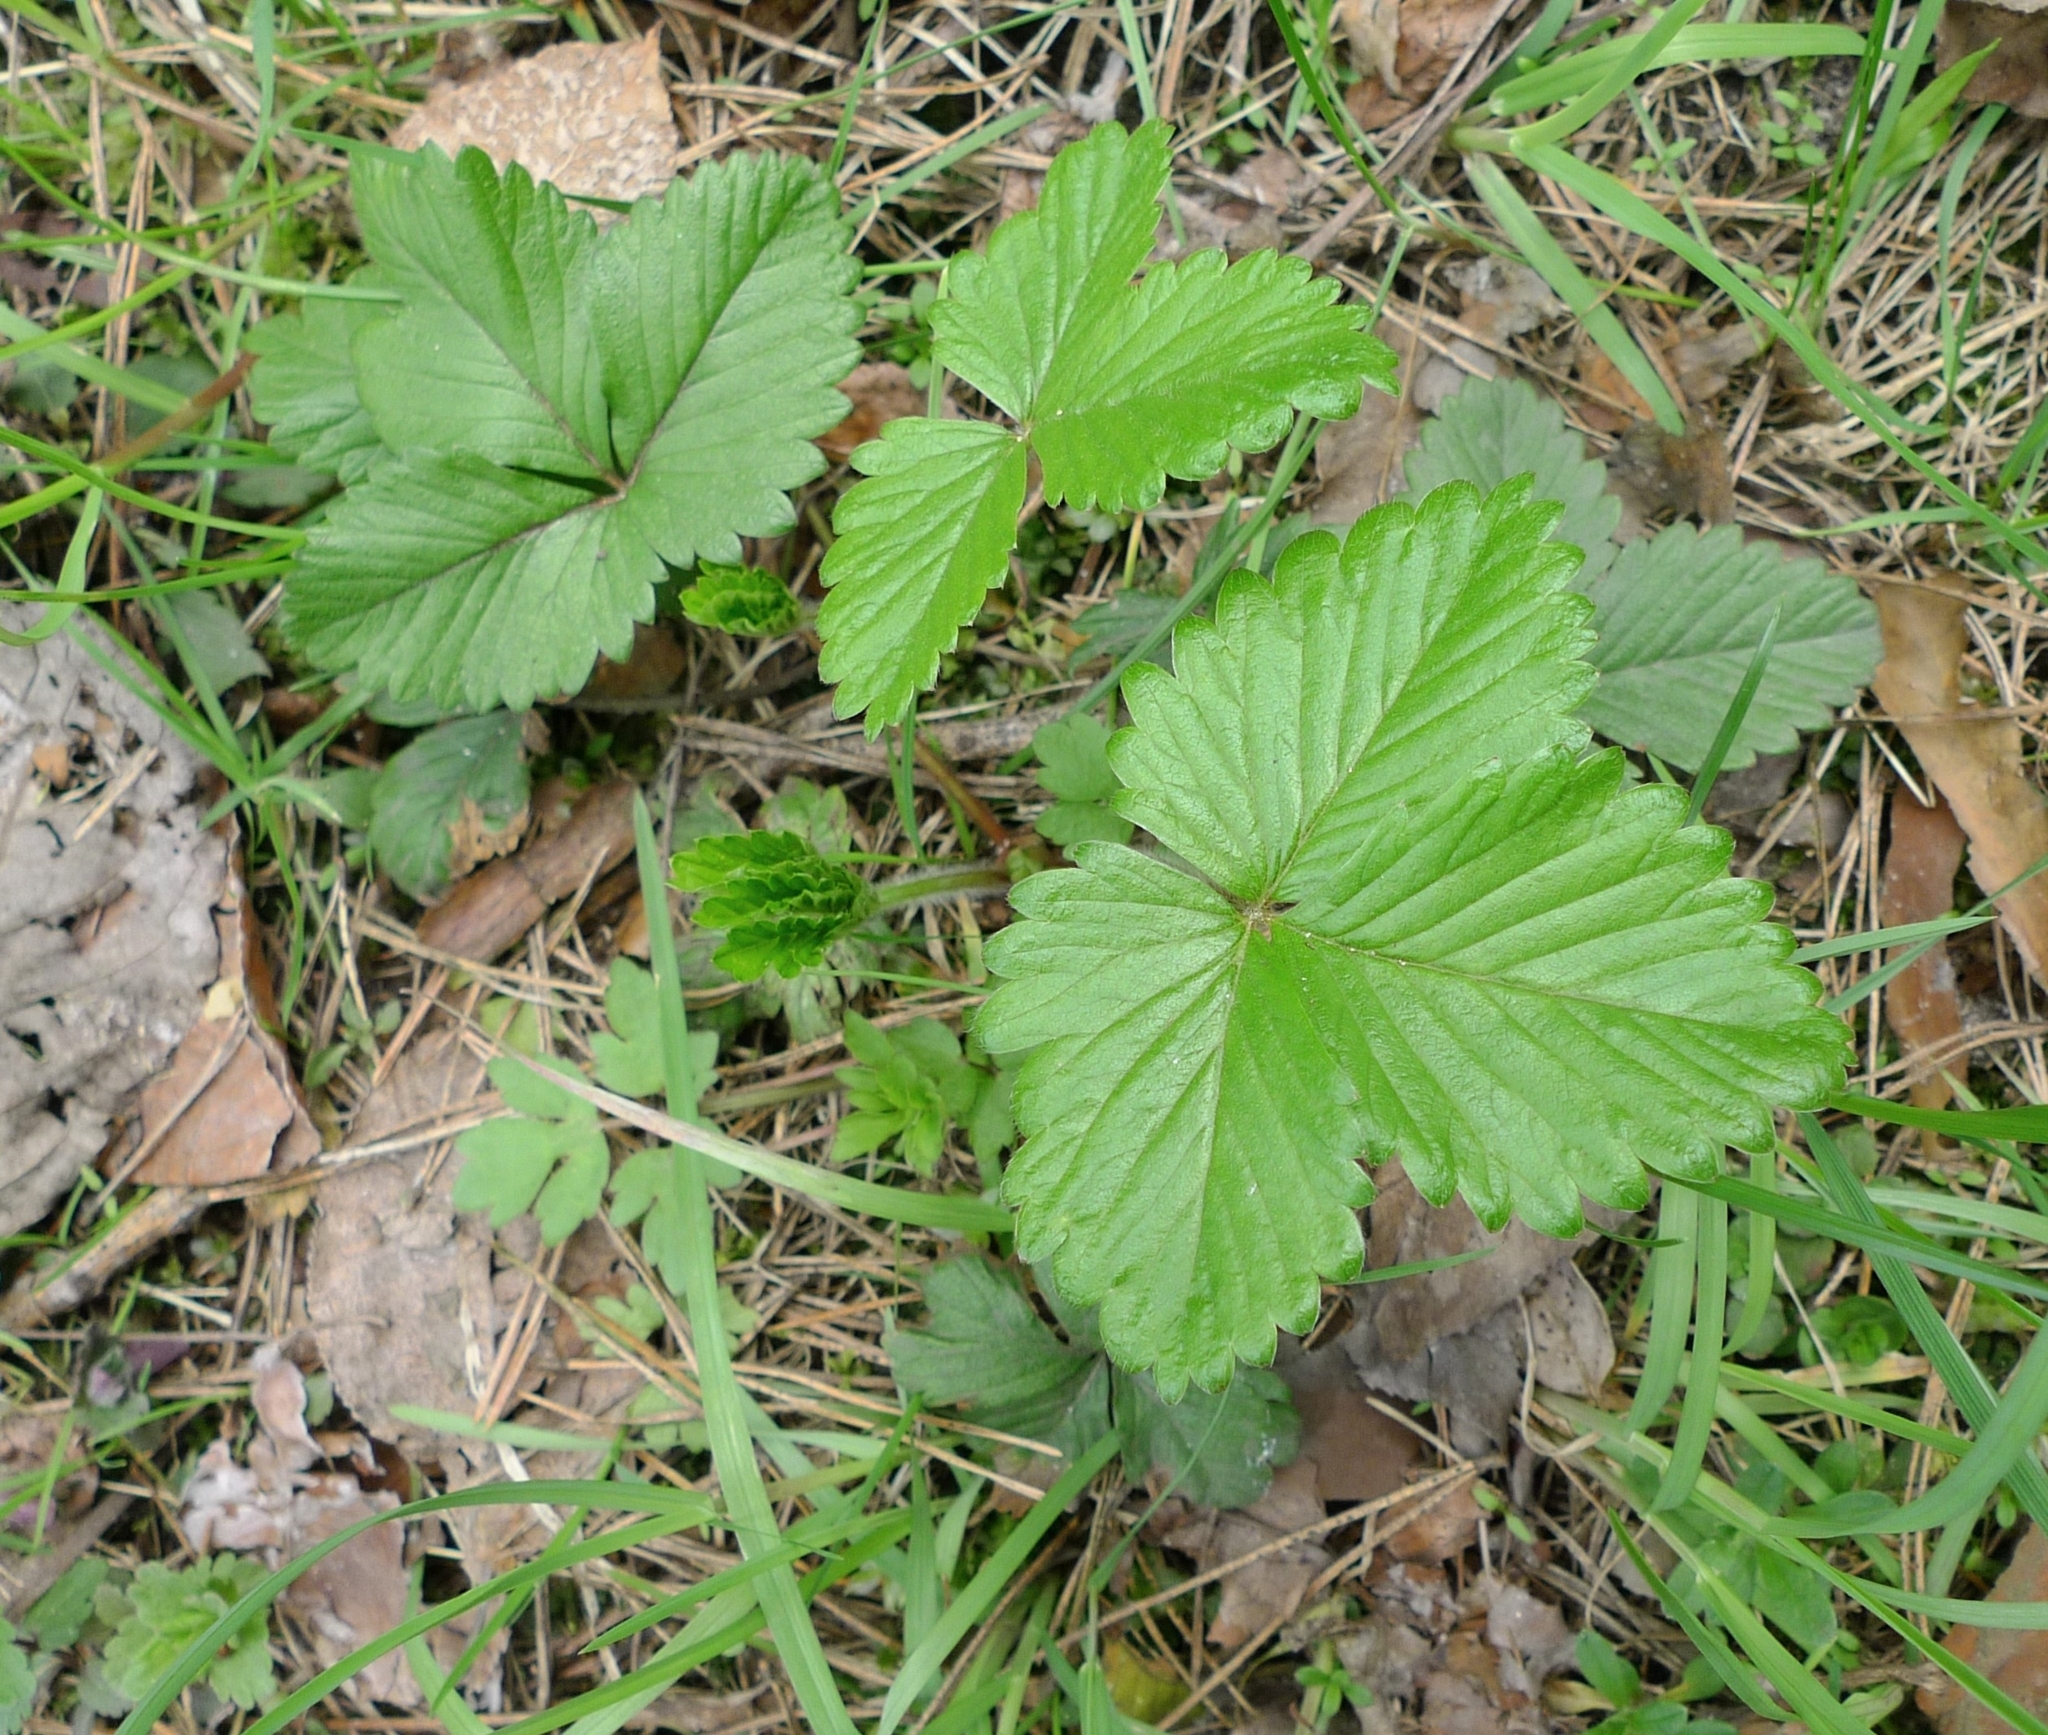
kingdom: Plantae
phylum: Tracheophyta
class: Magnoliopsida
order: Rosales
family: Rosaceae
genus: Fragaria
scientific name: Fragaria vesca
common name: Wild strawberry
